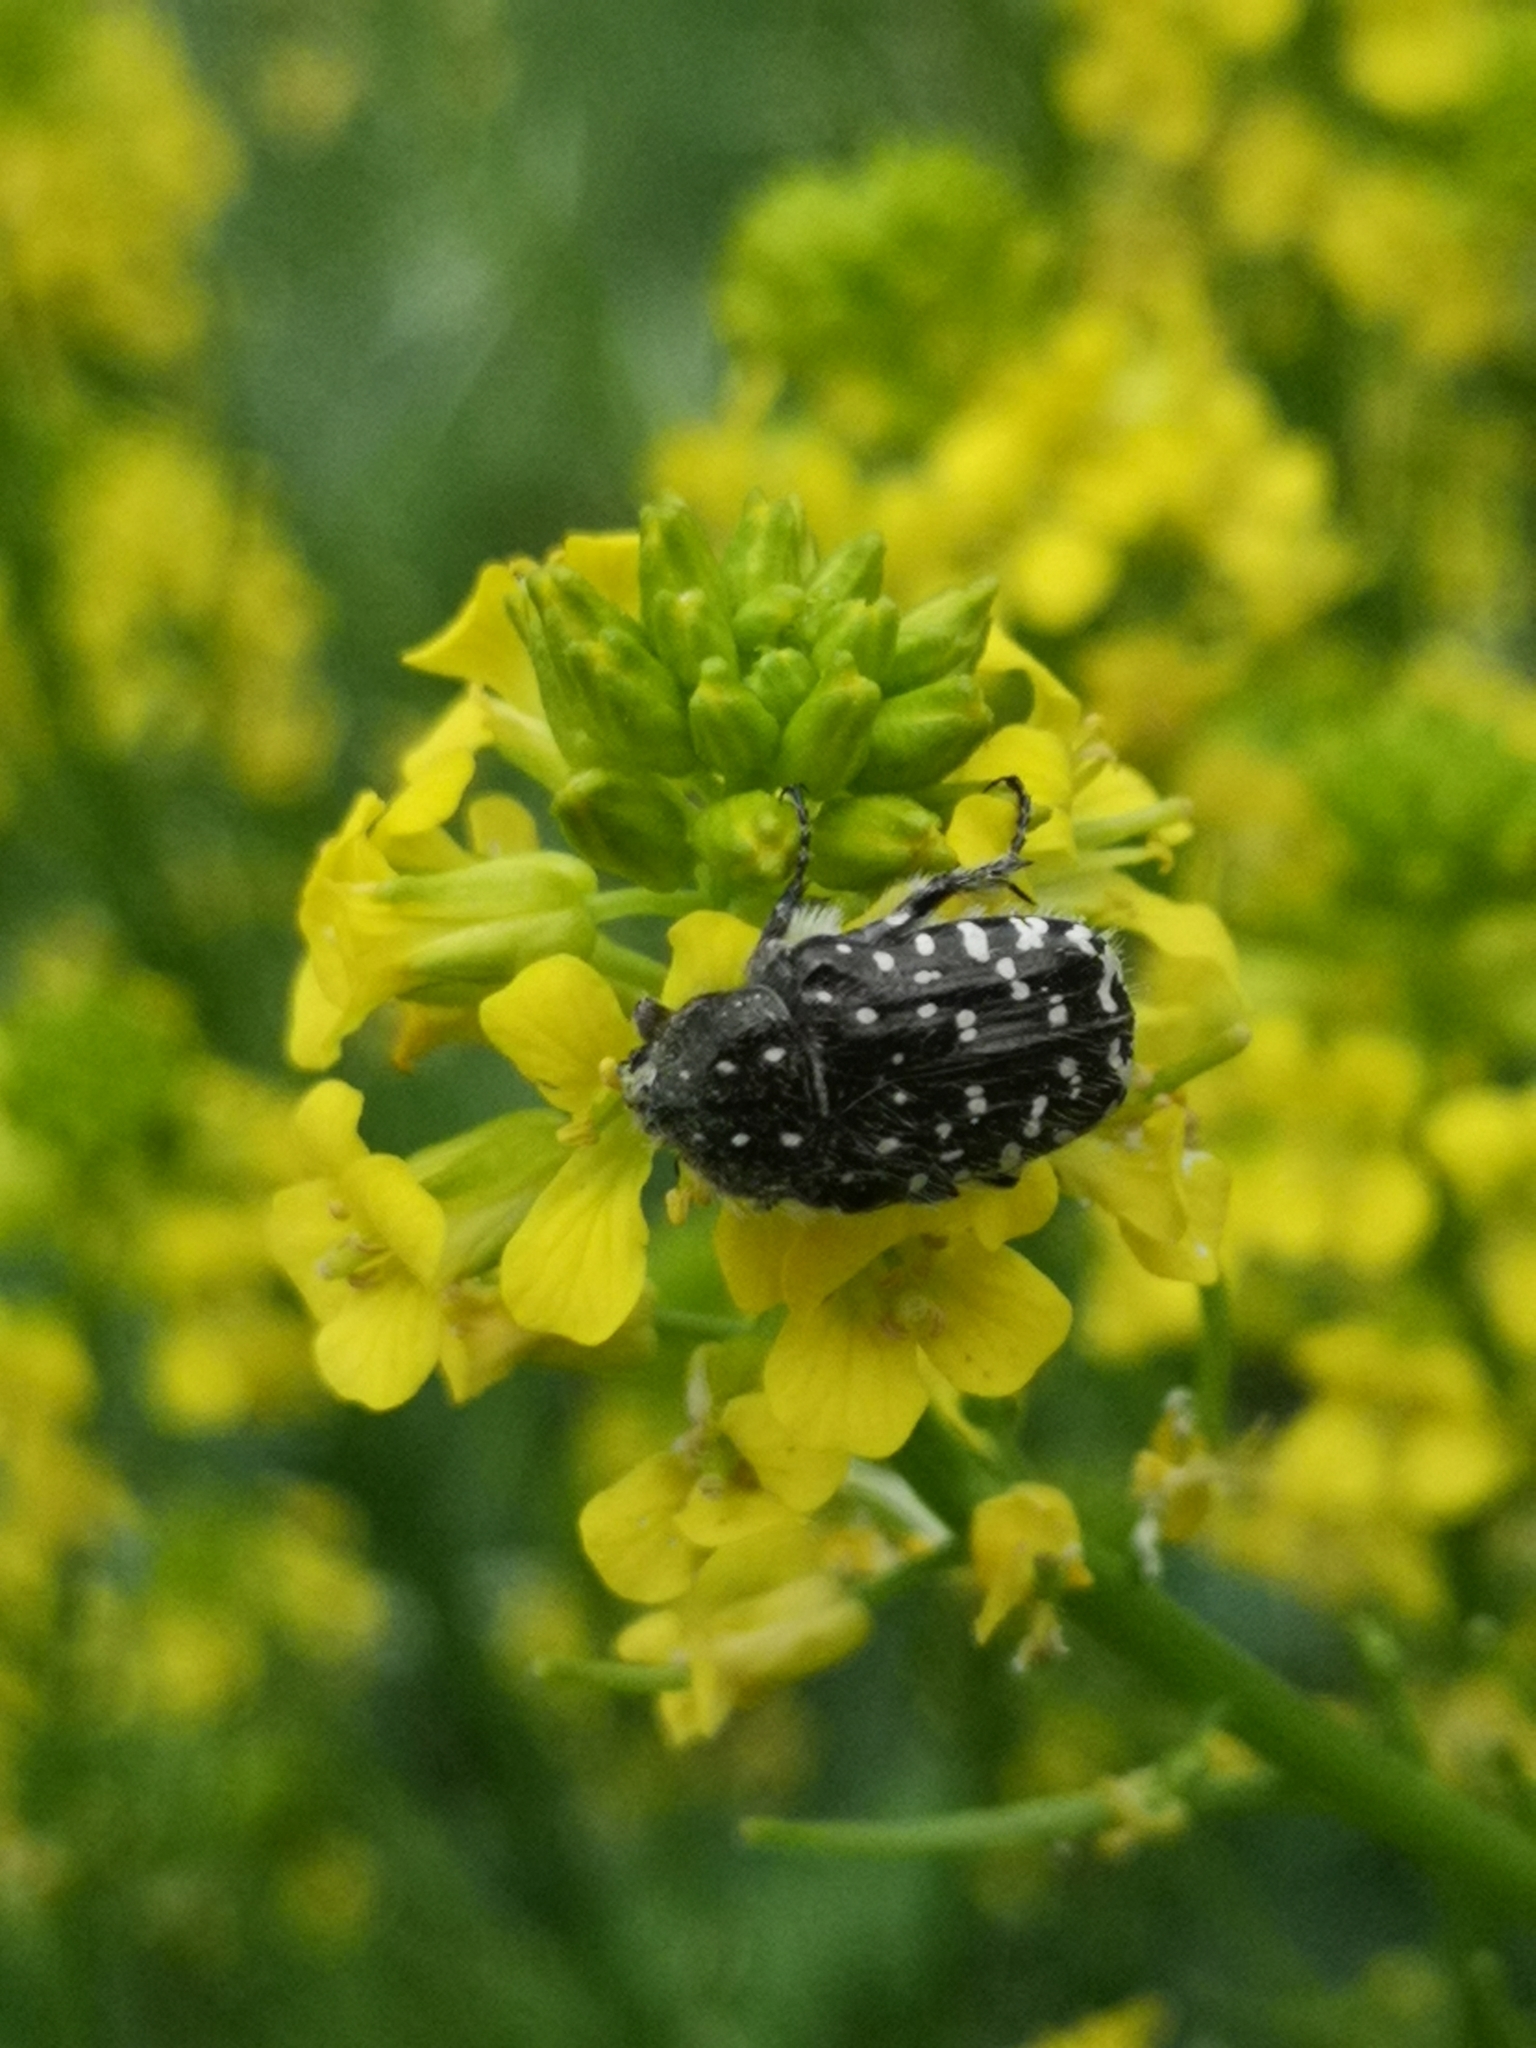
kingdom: Animalia
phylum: Arthropoda
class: Insecta
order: Coleoptera
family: Scarabaeidae
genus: Oxythyrea
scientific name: Oxythyrea funesta
